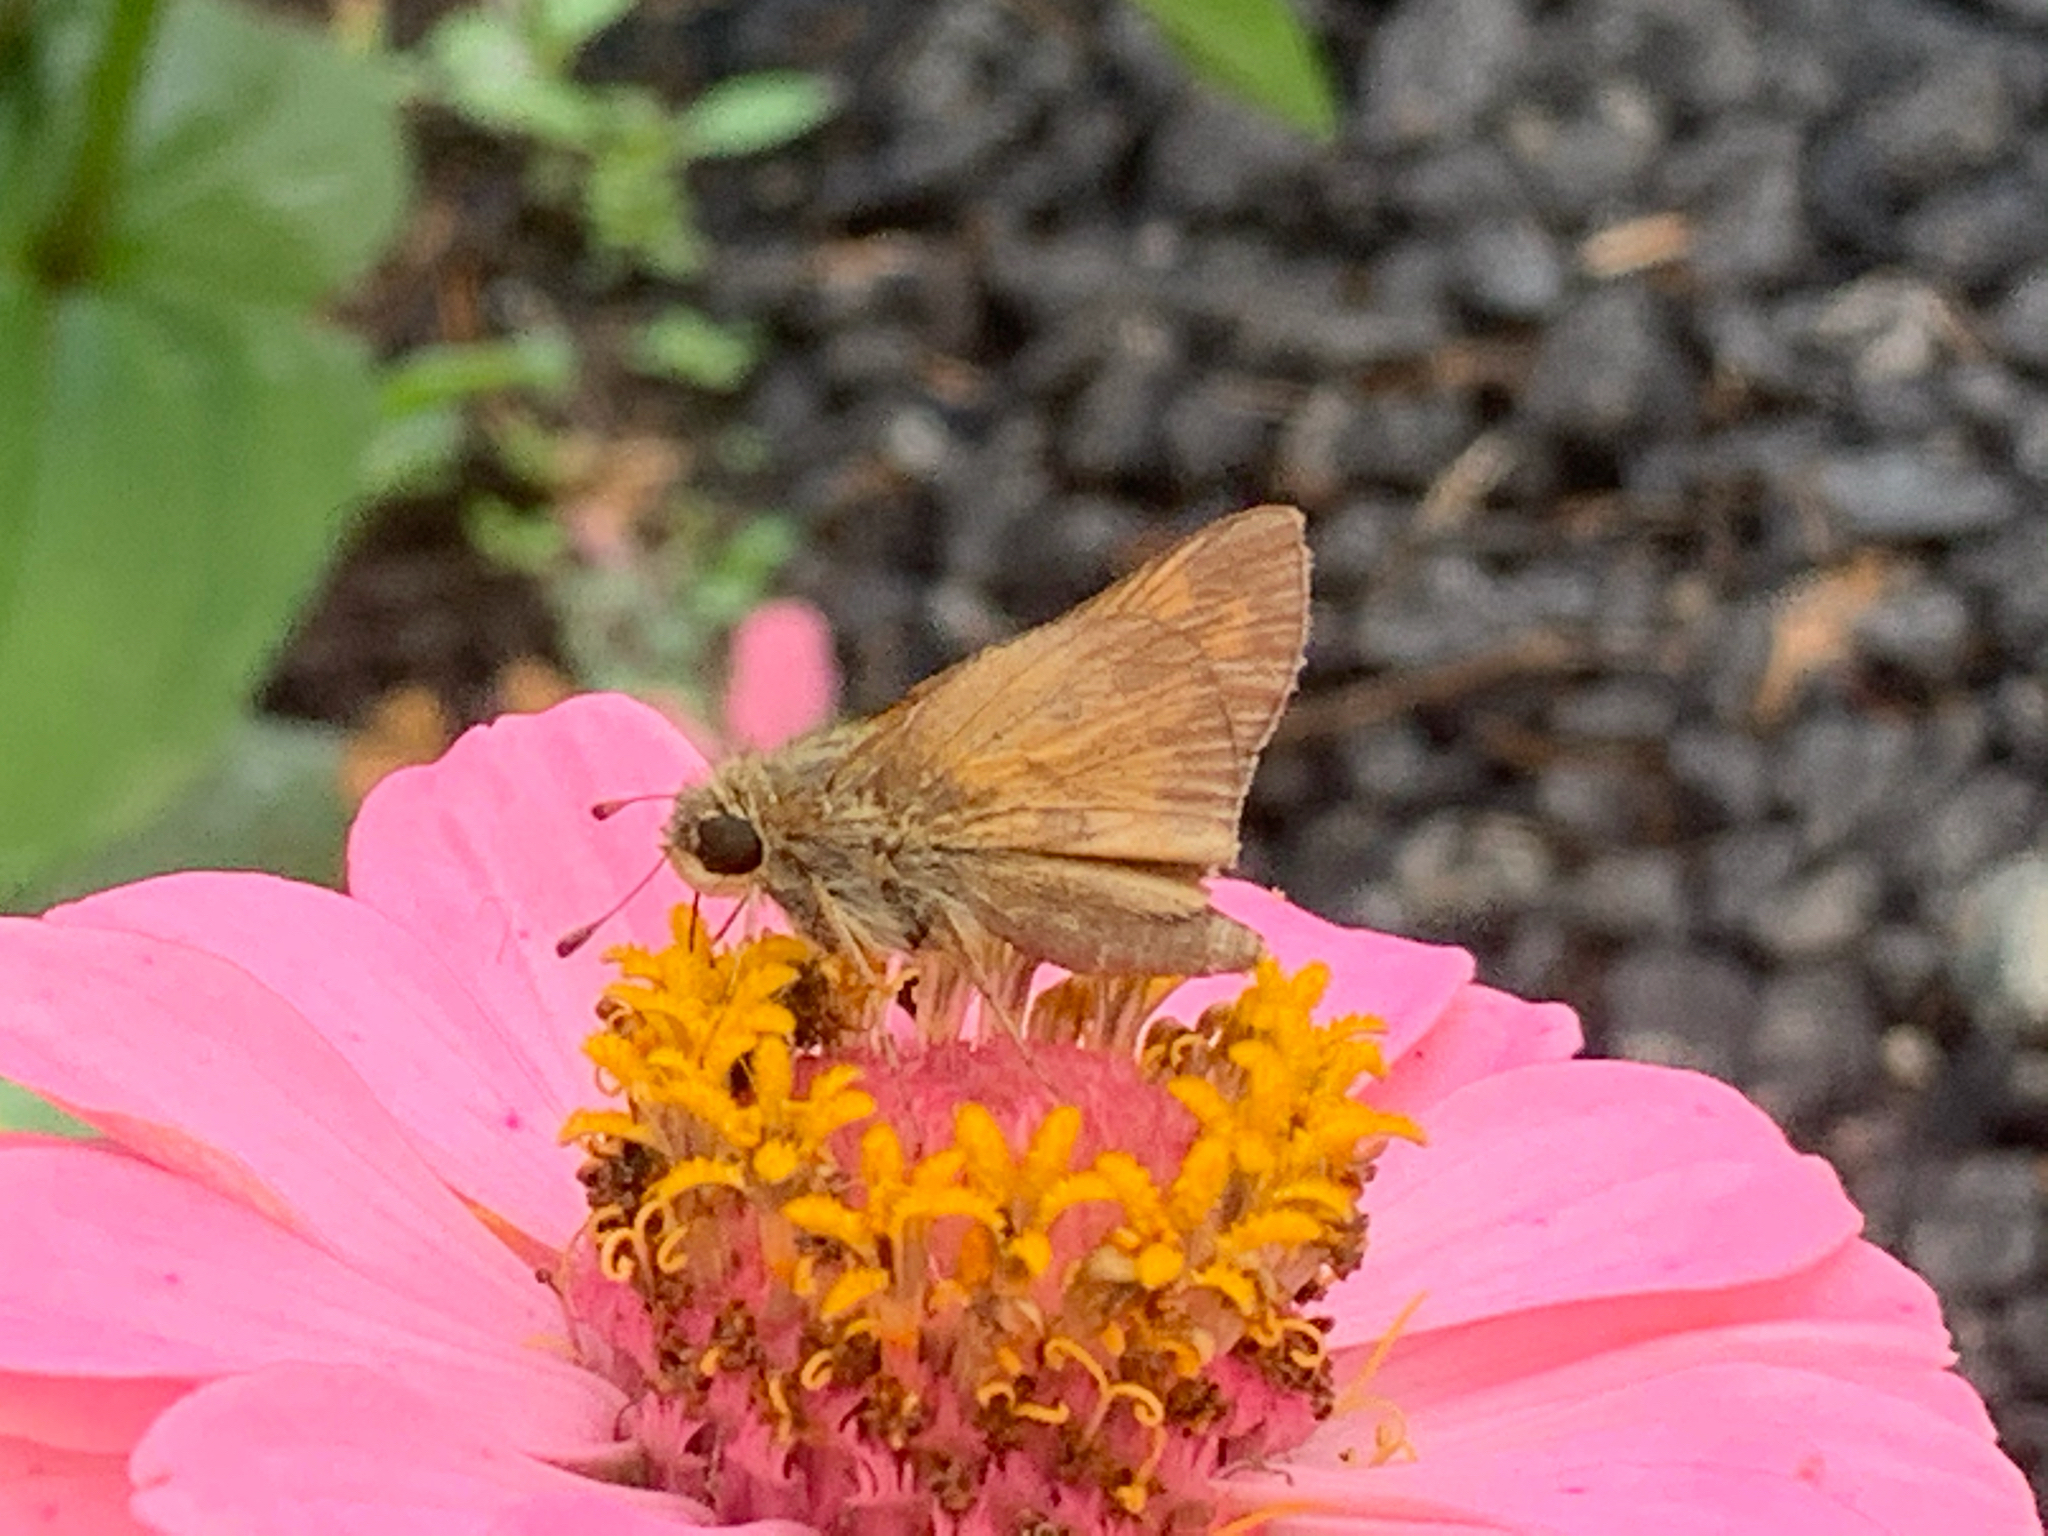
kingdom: Animalia
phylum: Arthropoda
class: Insecta
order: Lepidoptera
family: Hesperiidae
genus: Atalopedes
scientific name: Atalopedes
